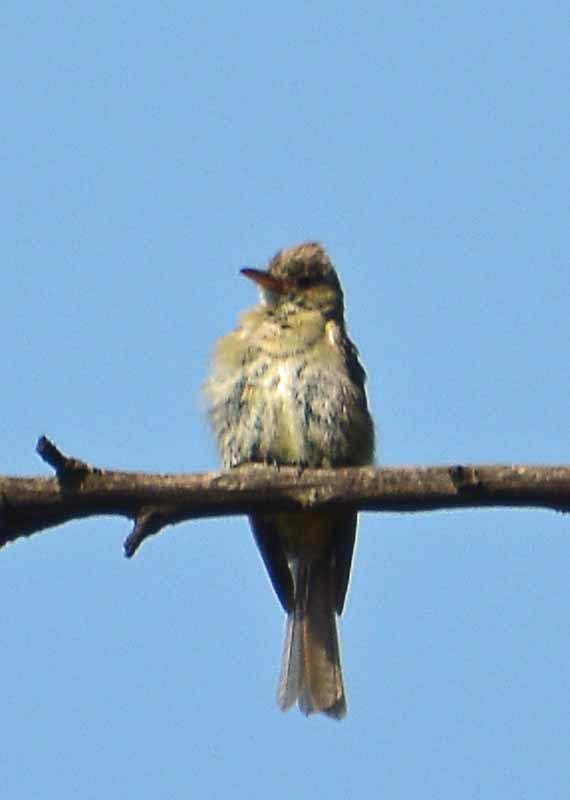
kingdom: Animalia
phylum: Chordata
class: Aves
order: Passeriformes
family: Tyrannidae
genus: Contopus
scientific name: Contopus pertinax
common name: Greater pewee
